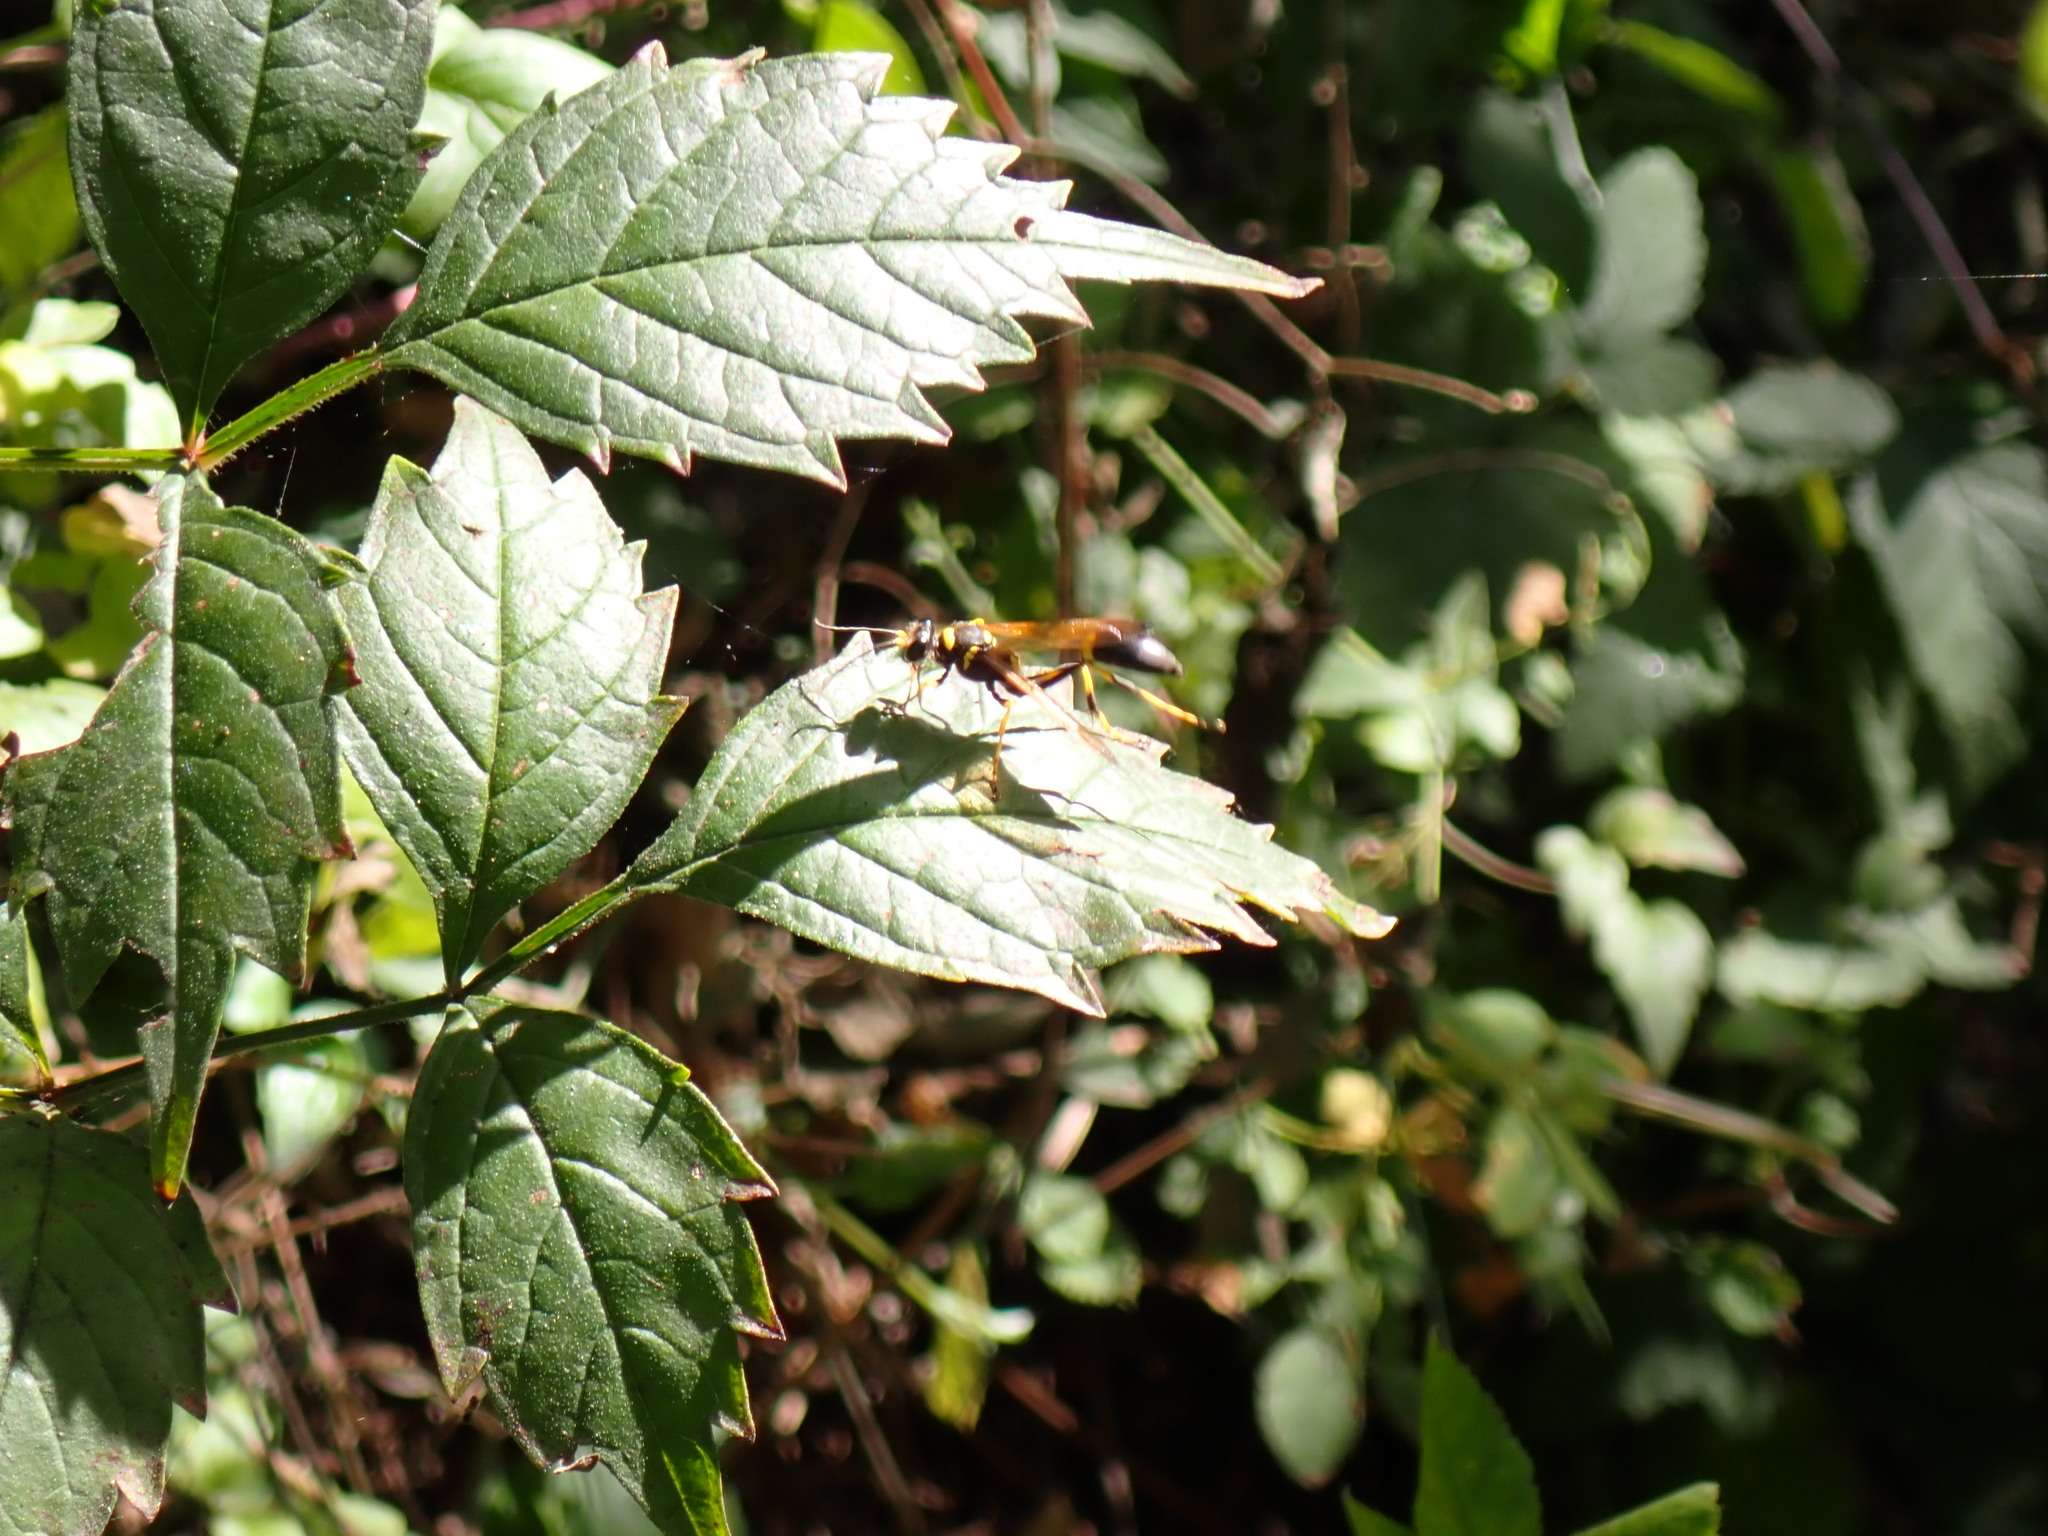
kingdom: Animalia
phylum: Arthropoda
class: Insecta
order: Hymenoptera
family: Sphecidae
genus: Sceliphron
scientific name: Sceliphron caementarium
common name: Mud dauber
